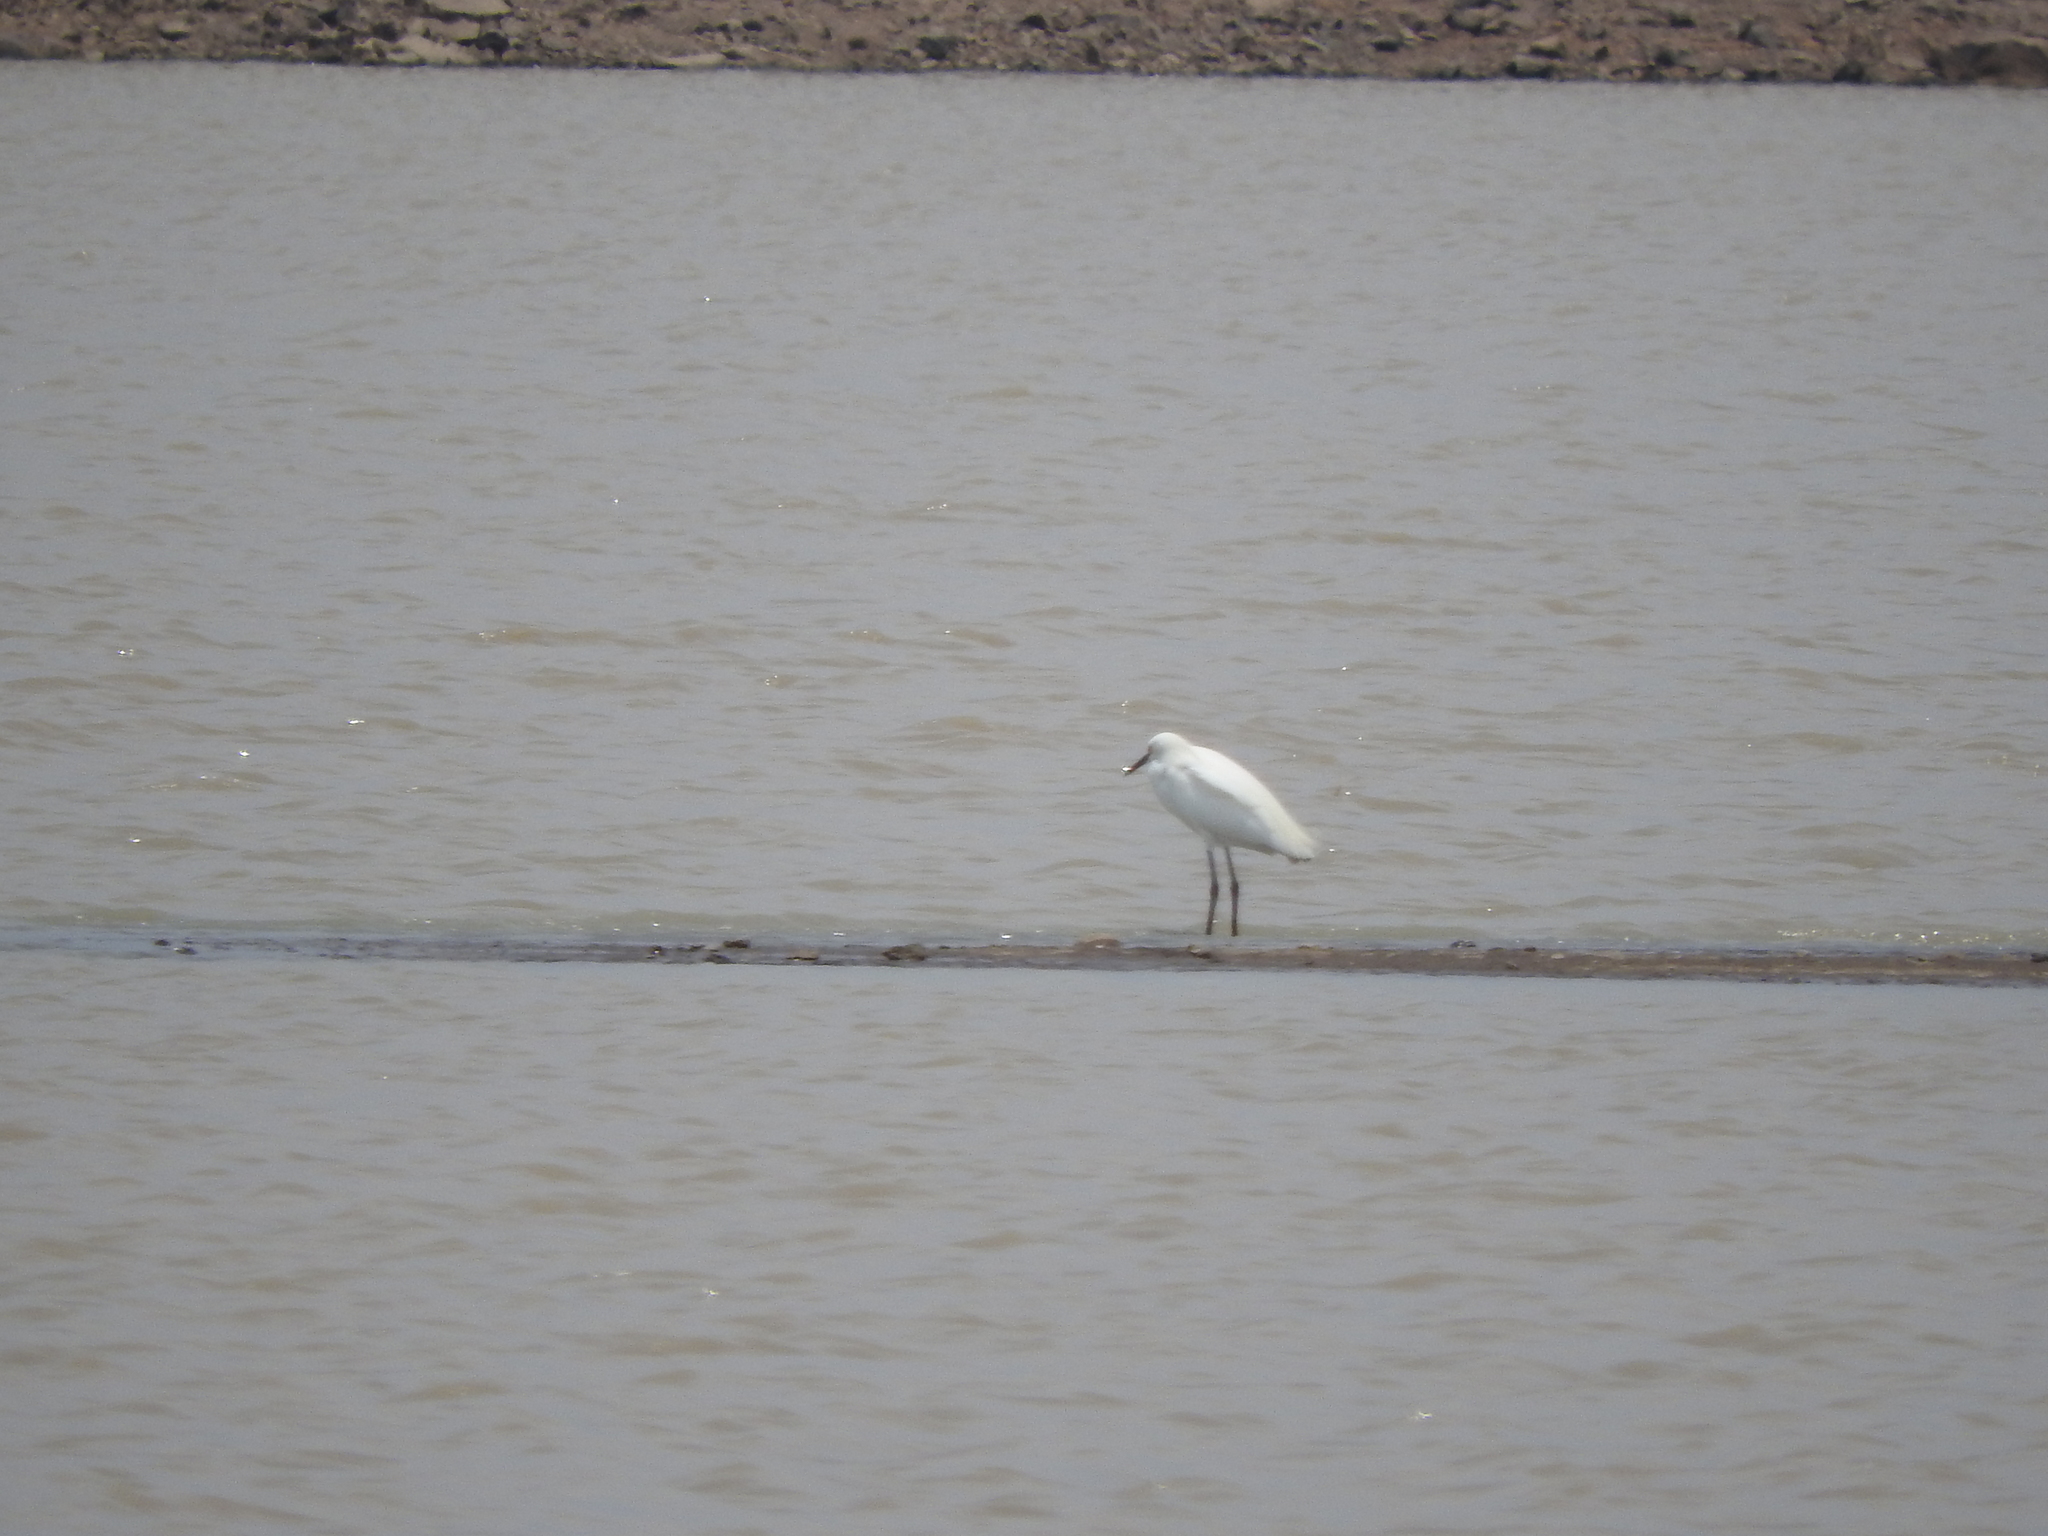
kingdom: Animalia
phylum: Chordata
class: Aves
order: Pelecaniformes
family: Ardeidae
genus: Egretta
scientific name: Egretta thula
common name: Snowy egret
